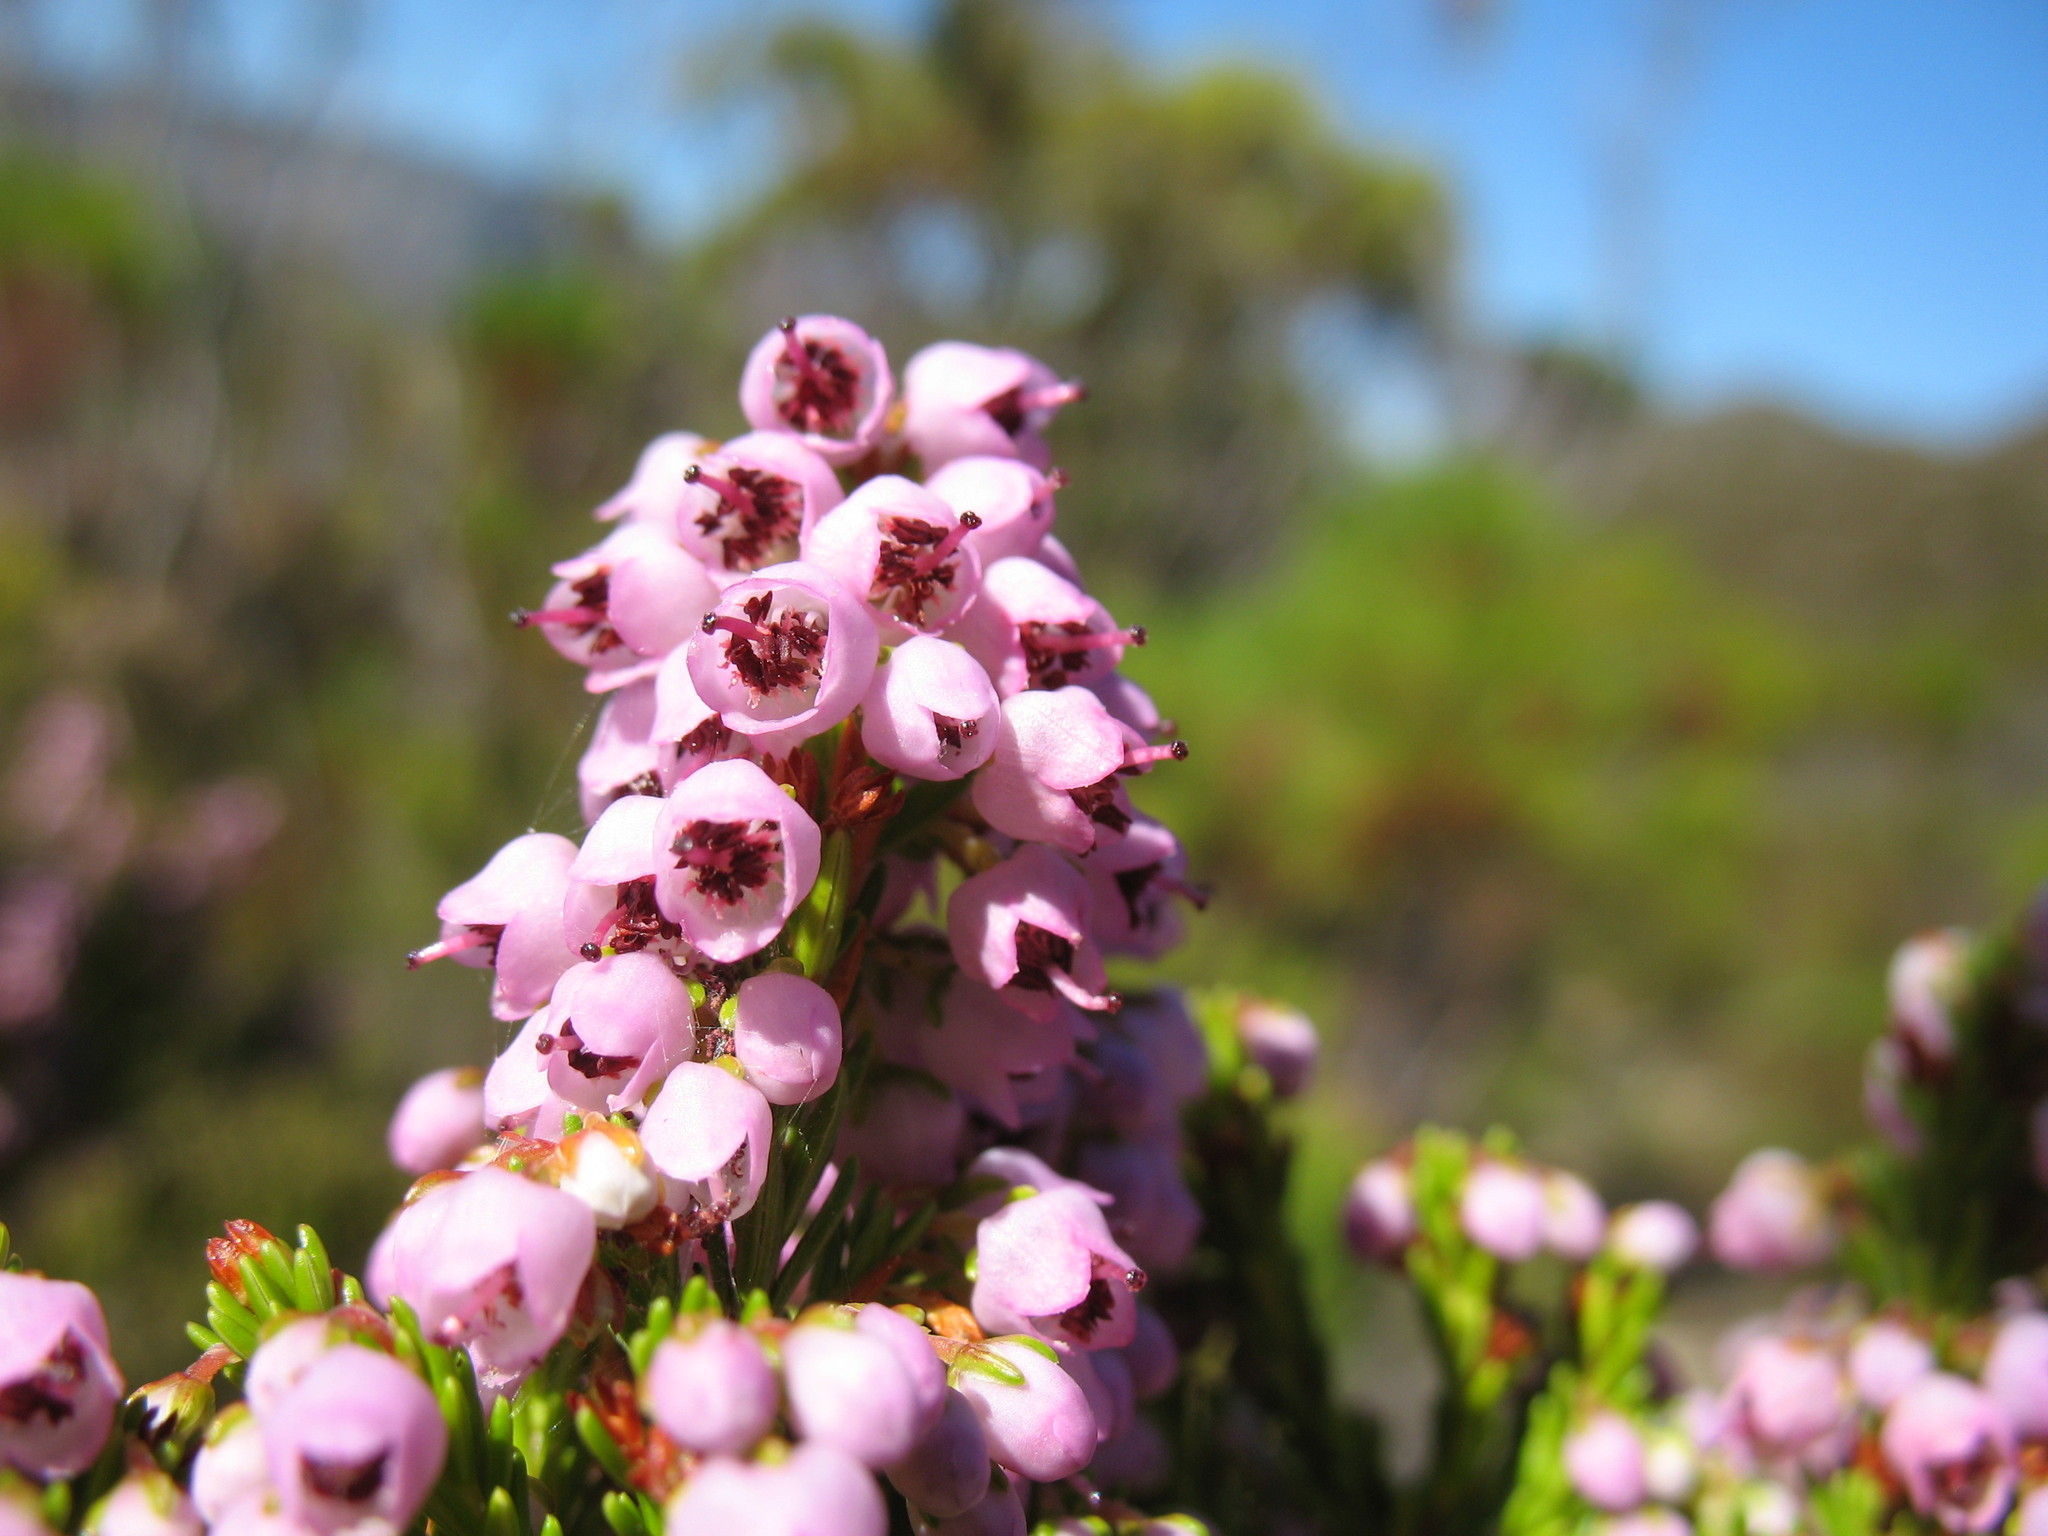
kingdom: Plantae
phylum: Tracheophyta
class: Magnoliopsida
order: Ericales
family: Ericaceae
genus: Erica
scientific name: Erica curvirostris
